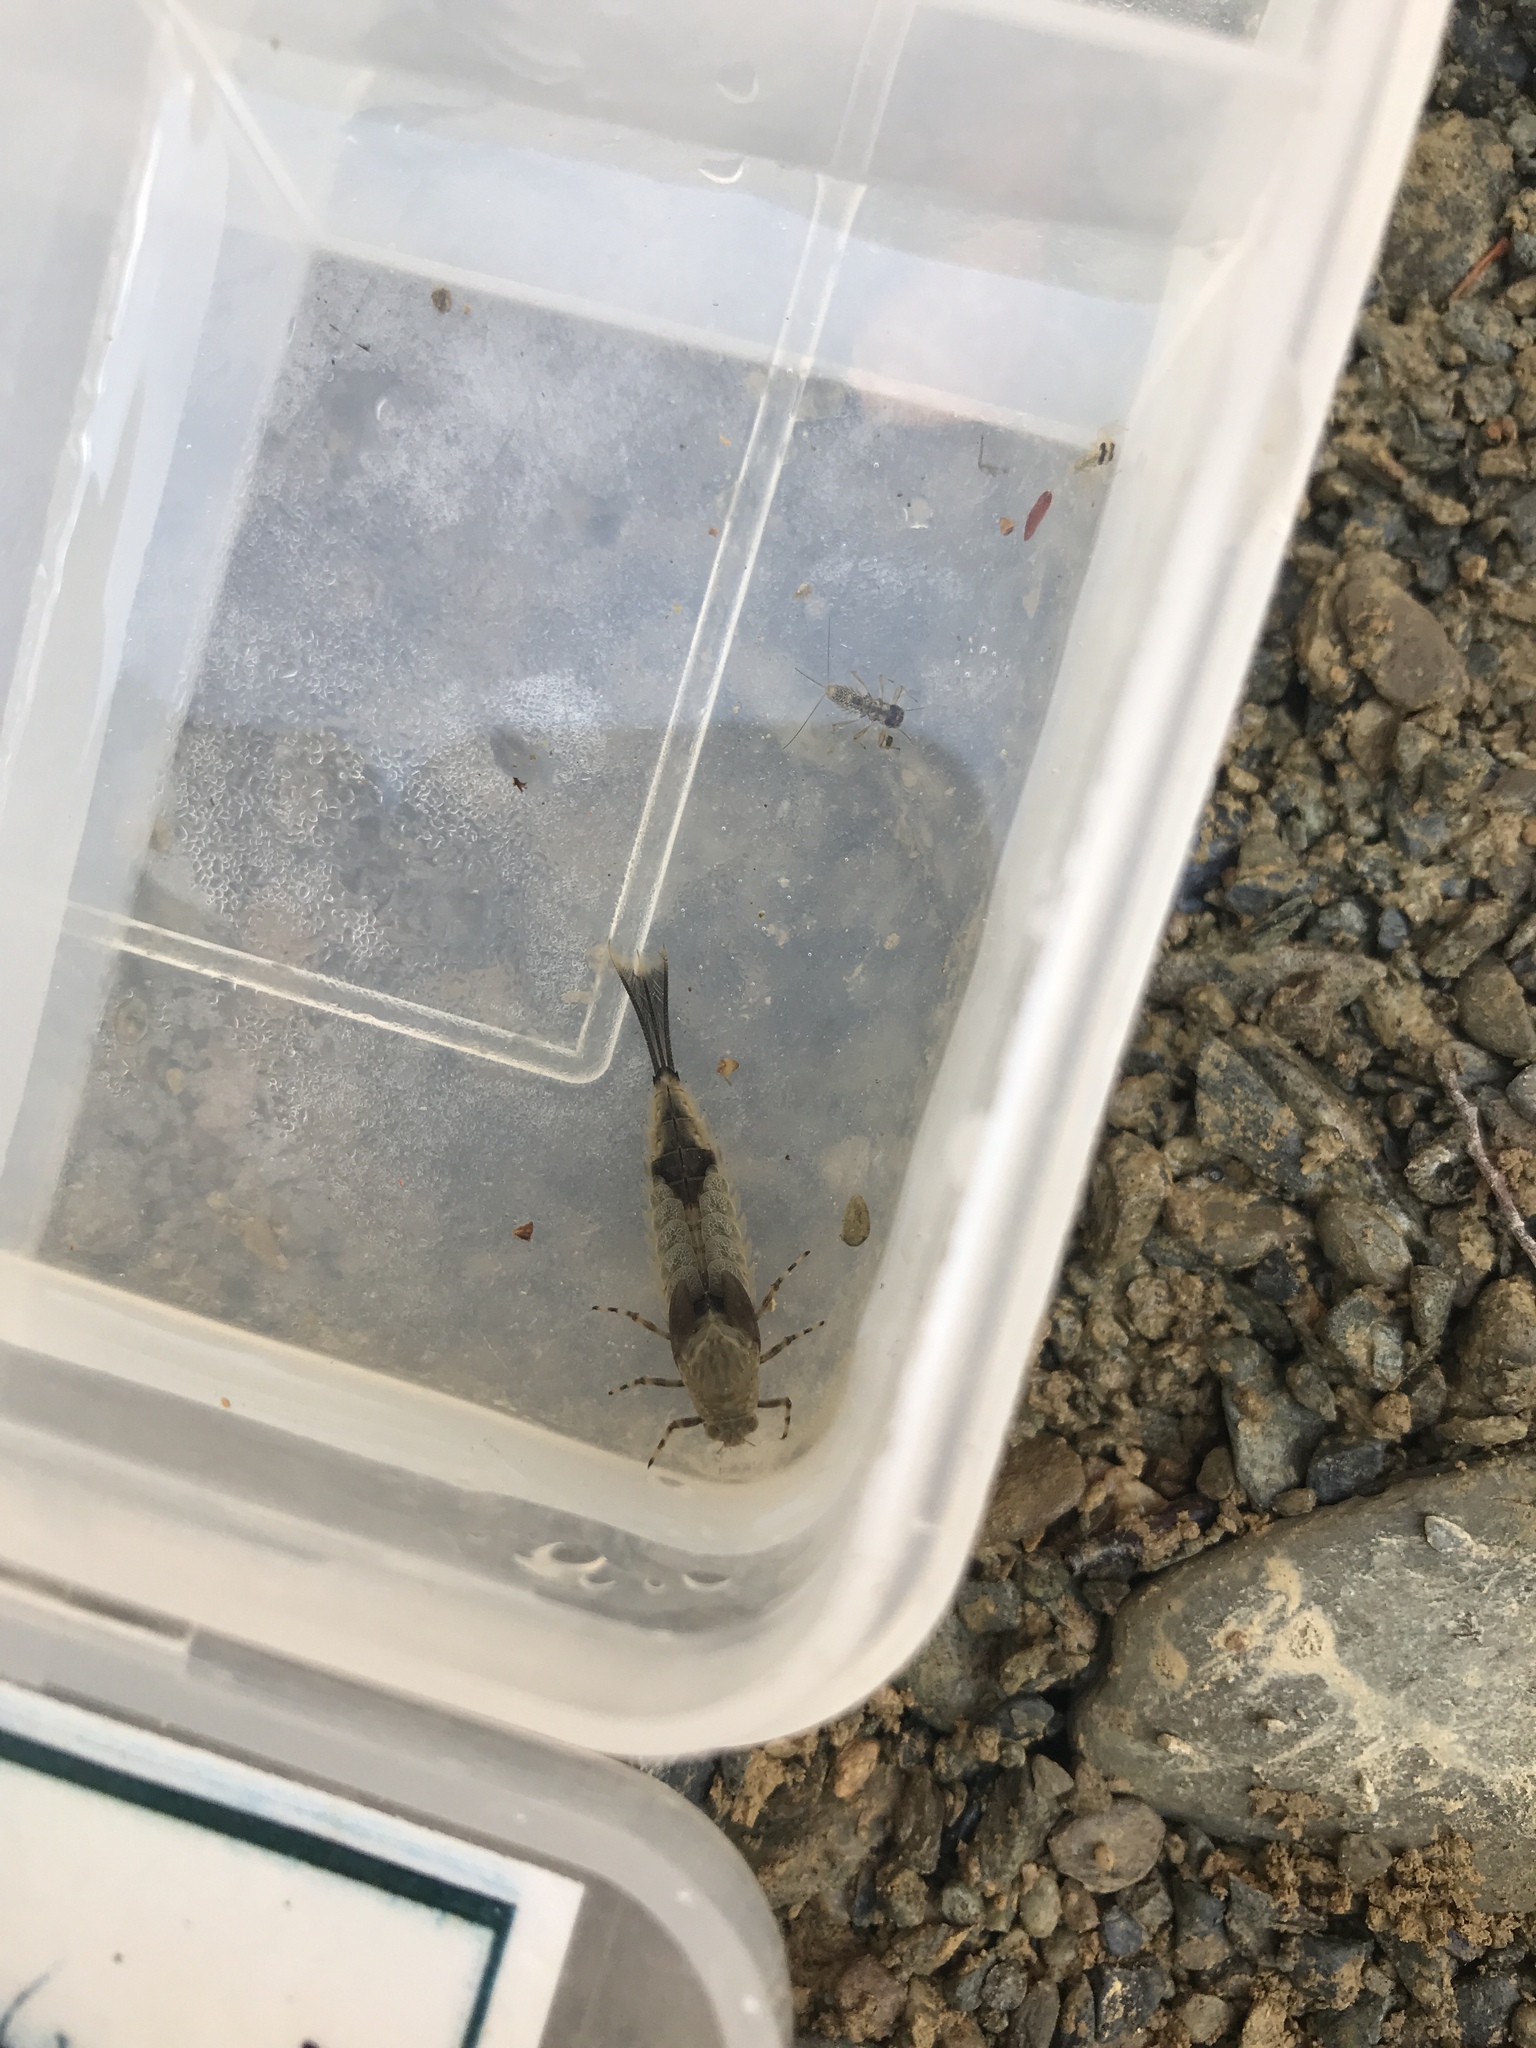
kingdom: Animalia
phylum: Arthropoda
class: Insecta
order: Ephemeroptera
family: Oniscigastridae
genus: Oniscigaster
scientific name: Oniscigaster distans
